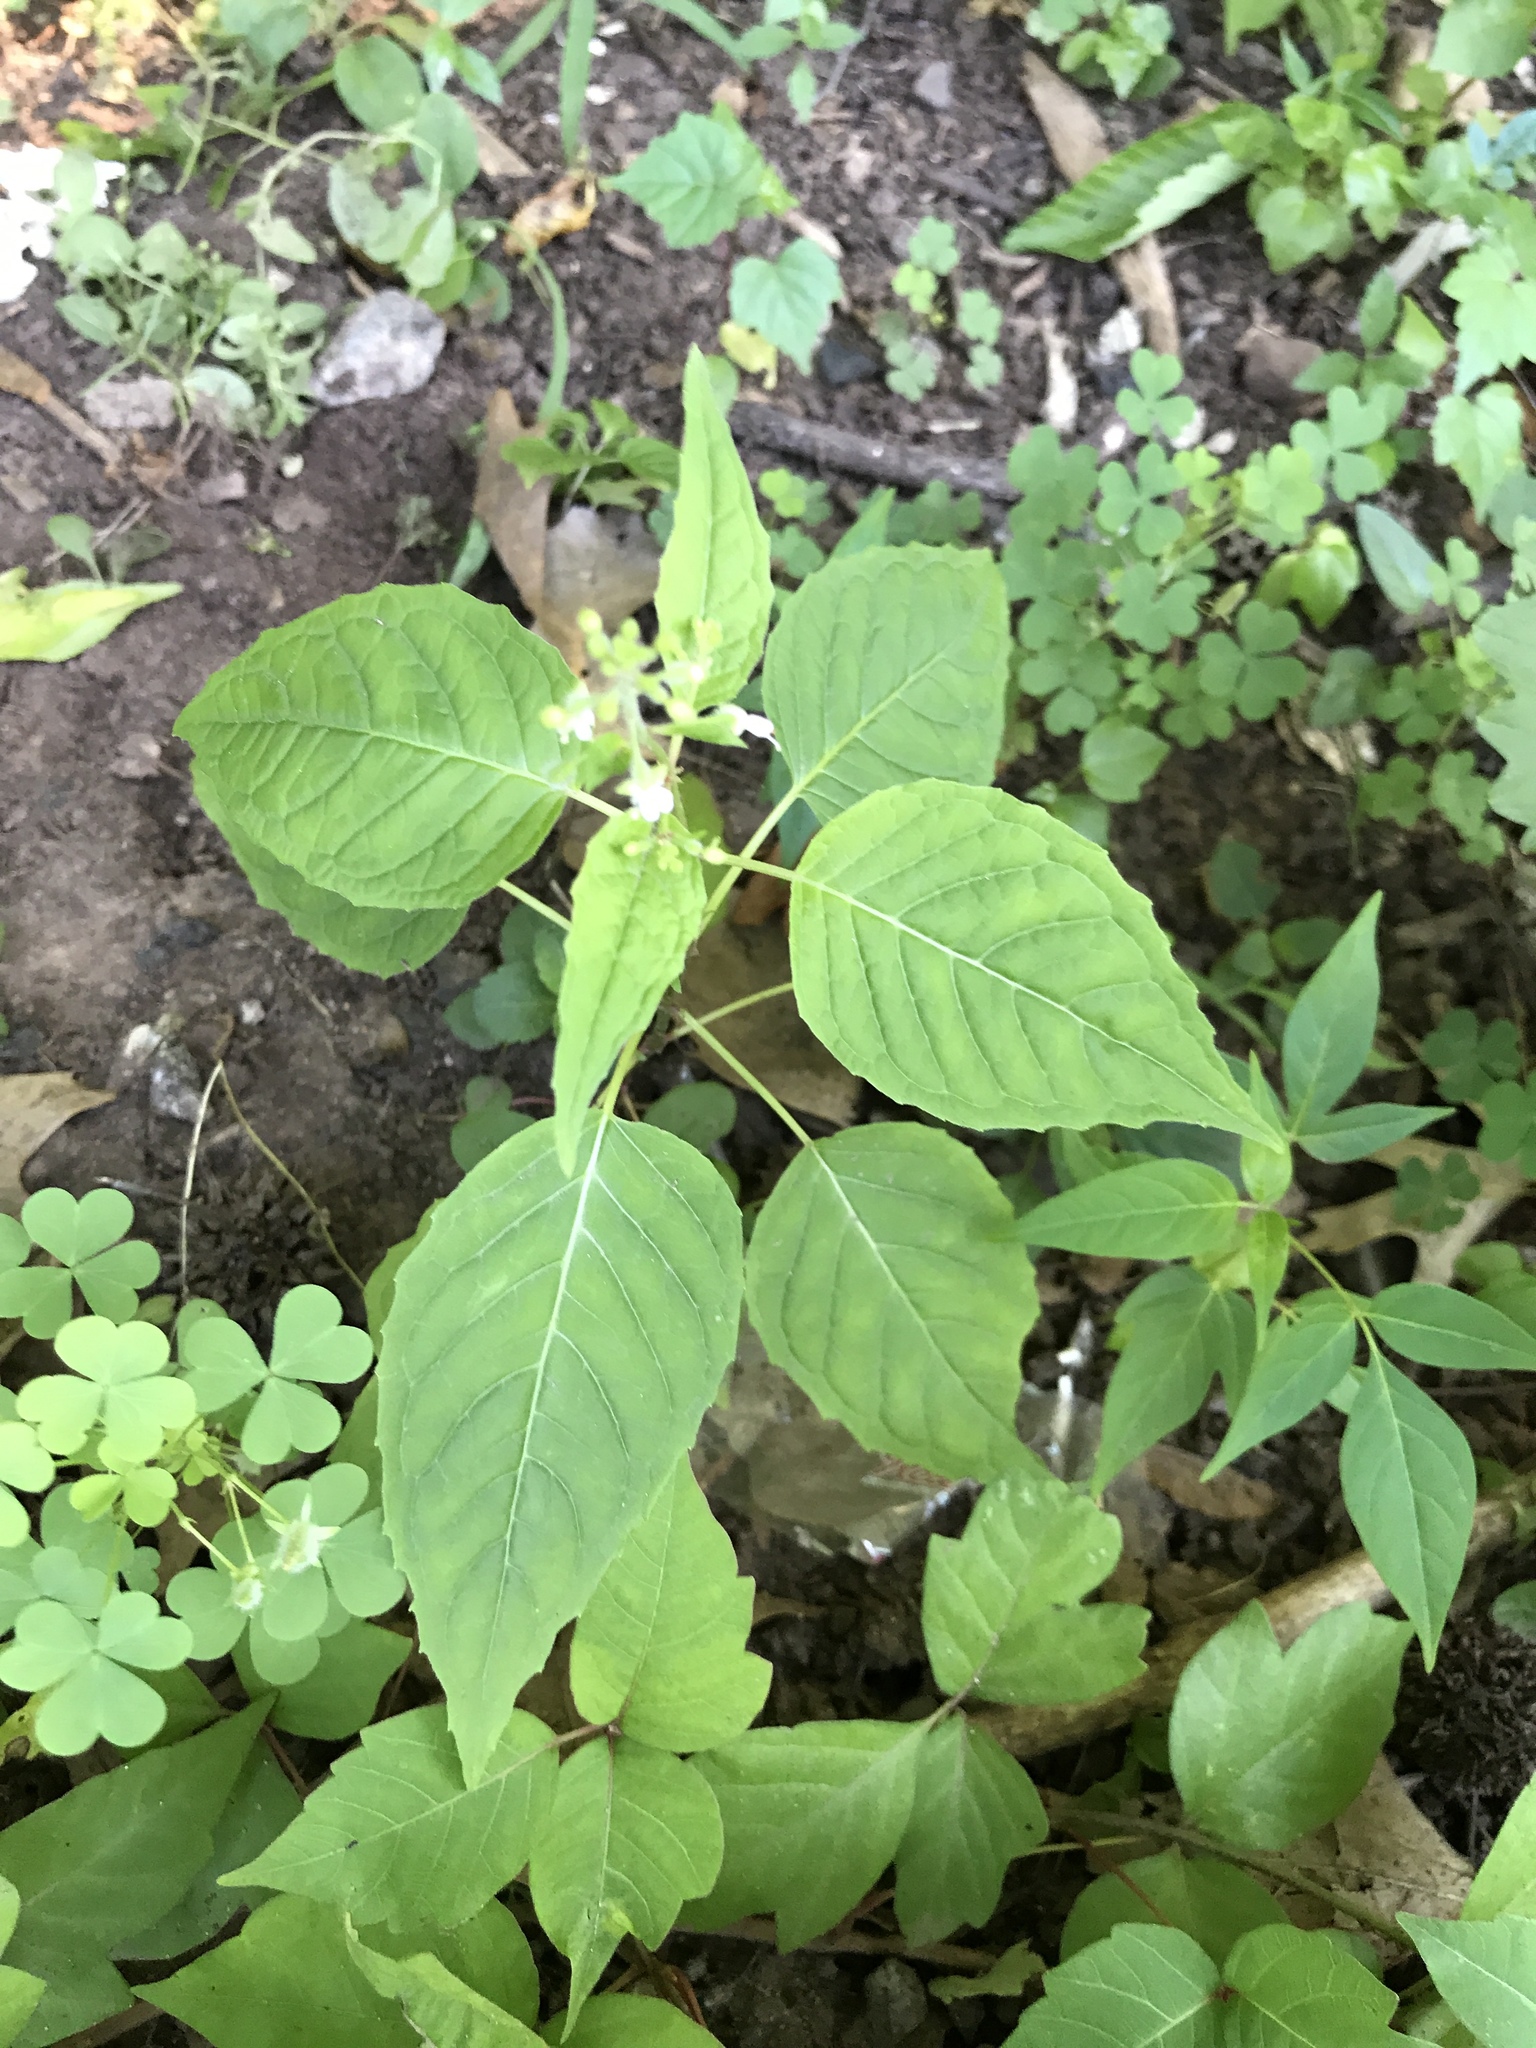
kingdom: Plantae
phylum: Tracheophyta
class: Magnoliopsida
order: Myrtales
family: Onagraceae
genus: Circaea
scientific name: Circaea canadensis
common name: Broad-leaved enchanter's nightshade
